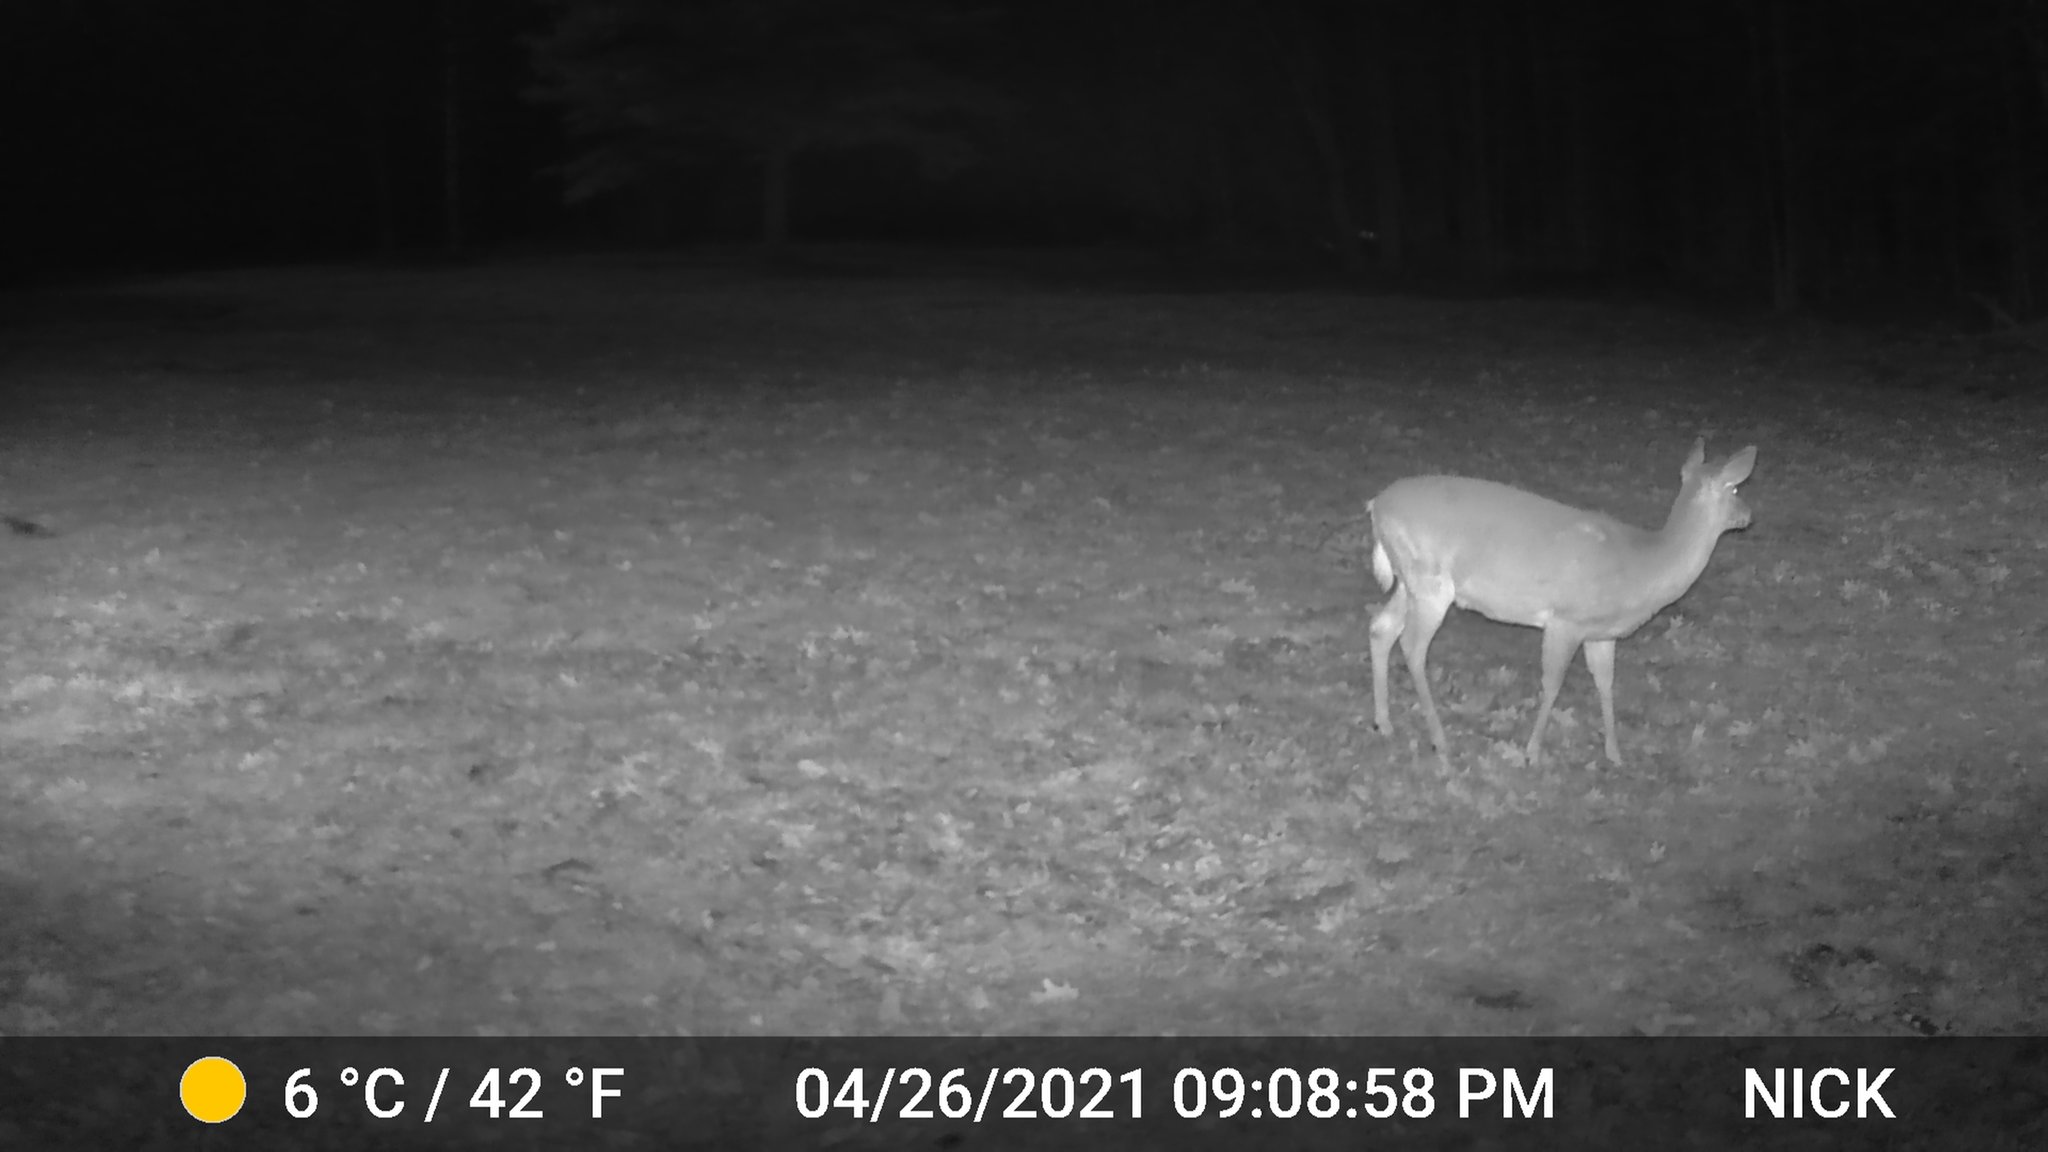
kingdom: Animalia
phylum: Chordata
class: Mammalia
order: Artiodactyla
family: Cervidae
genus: Odocoileus
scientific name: Odocoileus virginianus
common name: White-tailed deer
